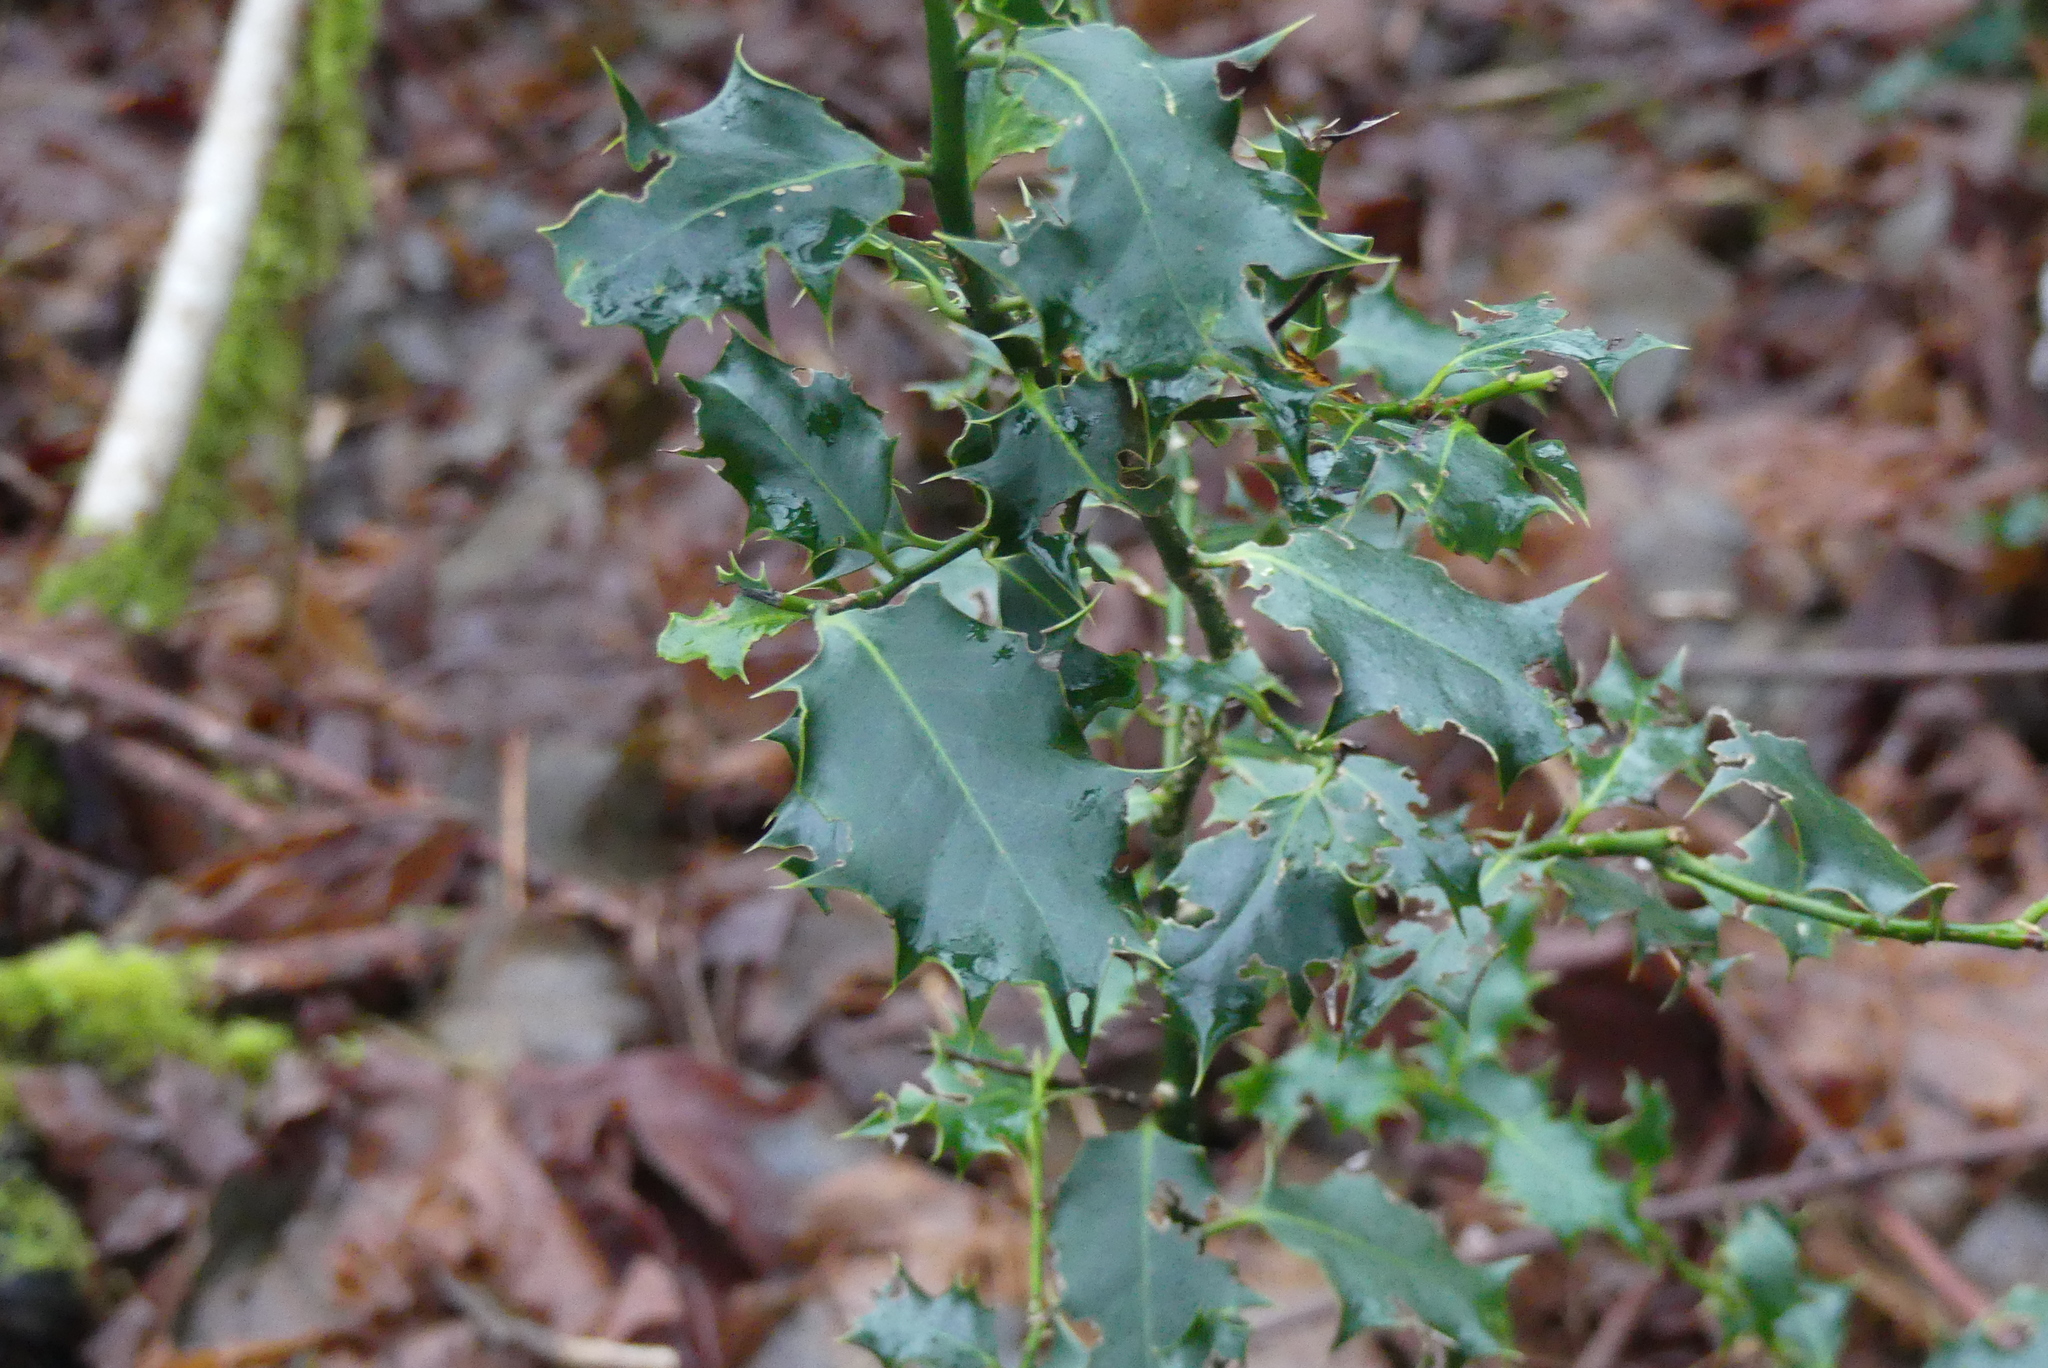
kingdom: Plantae
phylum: Tracheophyta
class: Magnoliopsida
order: Aquifoliales
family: Aquifoliaceae
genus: Ilex
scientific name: Ilex aquifolium
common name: English holly
